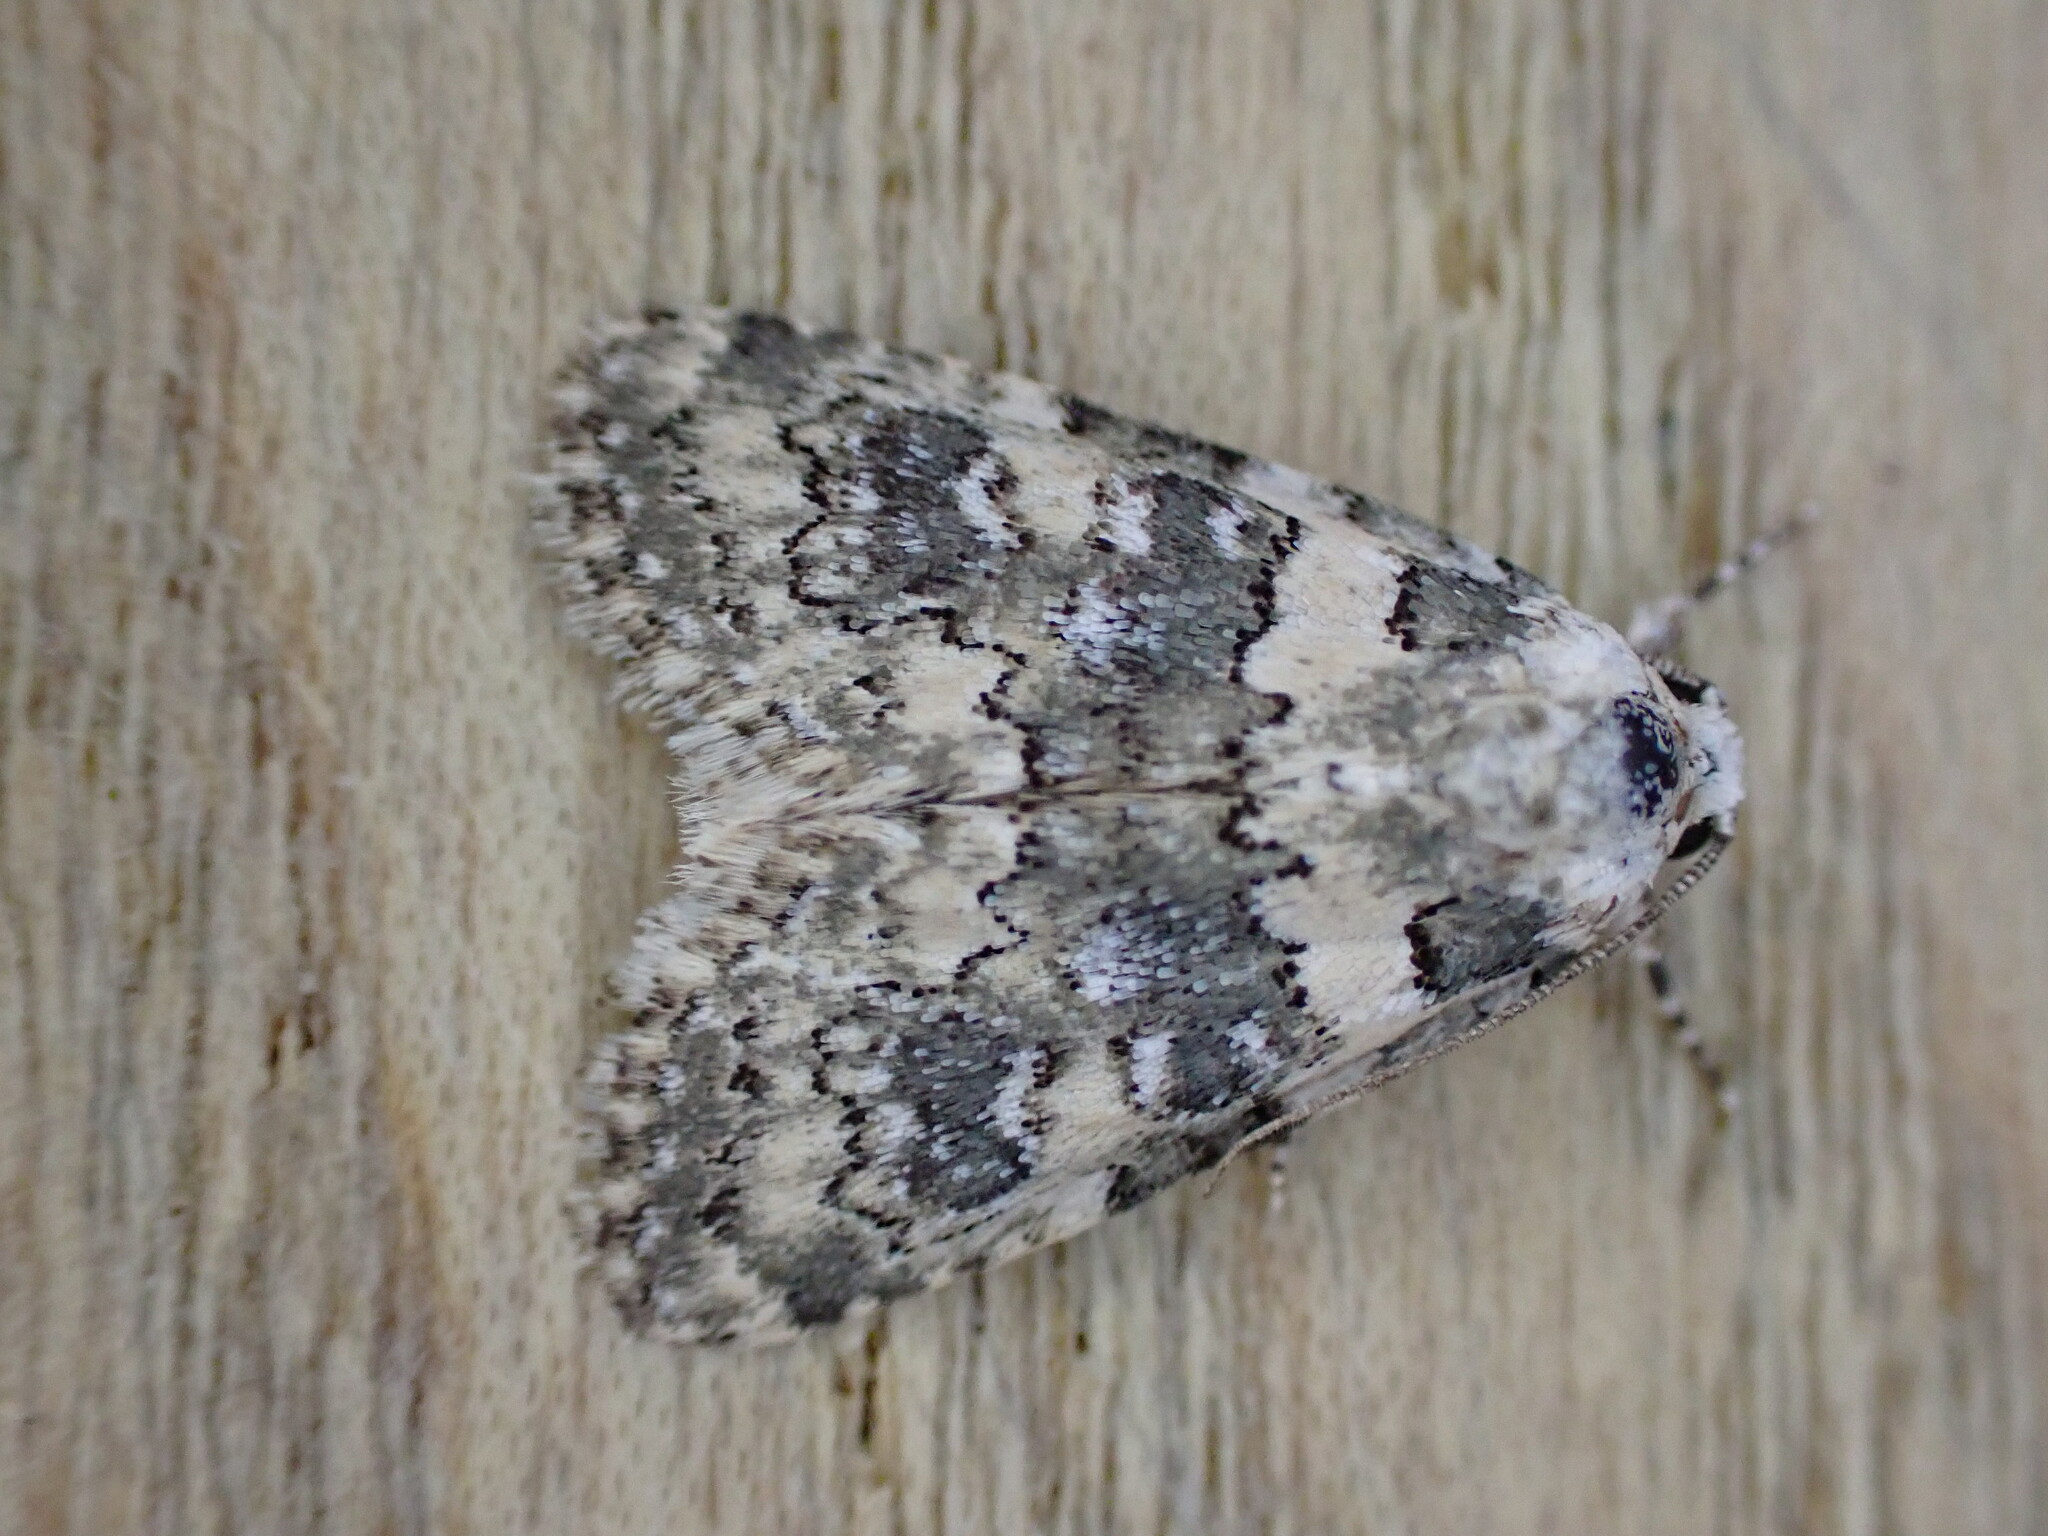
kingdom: Animalia
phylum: Arthropoda
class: Insecta
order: Lepidoptera
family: Noctuidae
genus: Bryophila
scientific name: Bryophila domestica
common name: Marbled beauty
